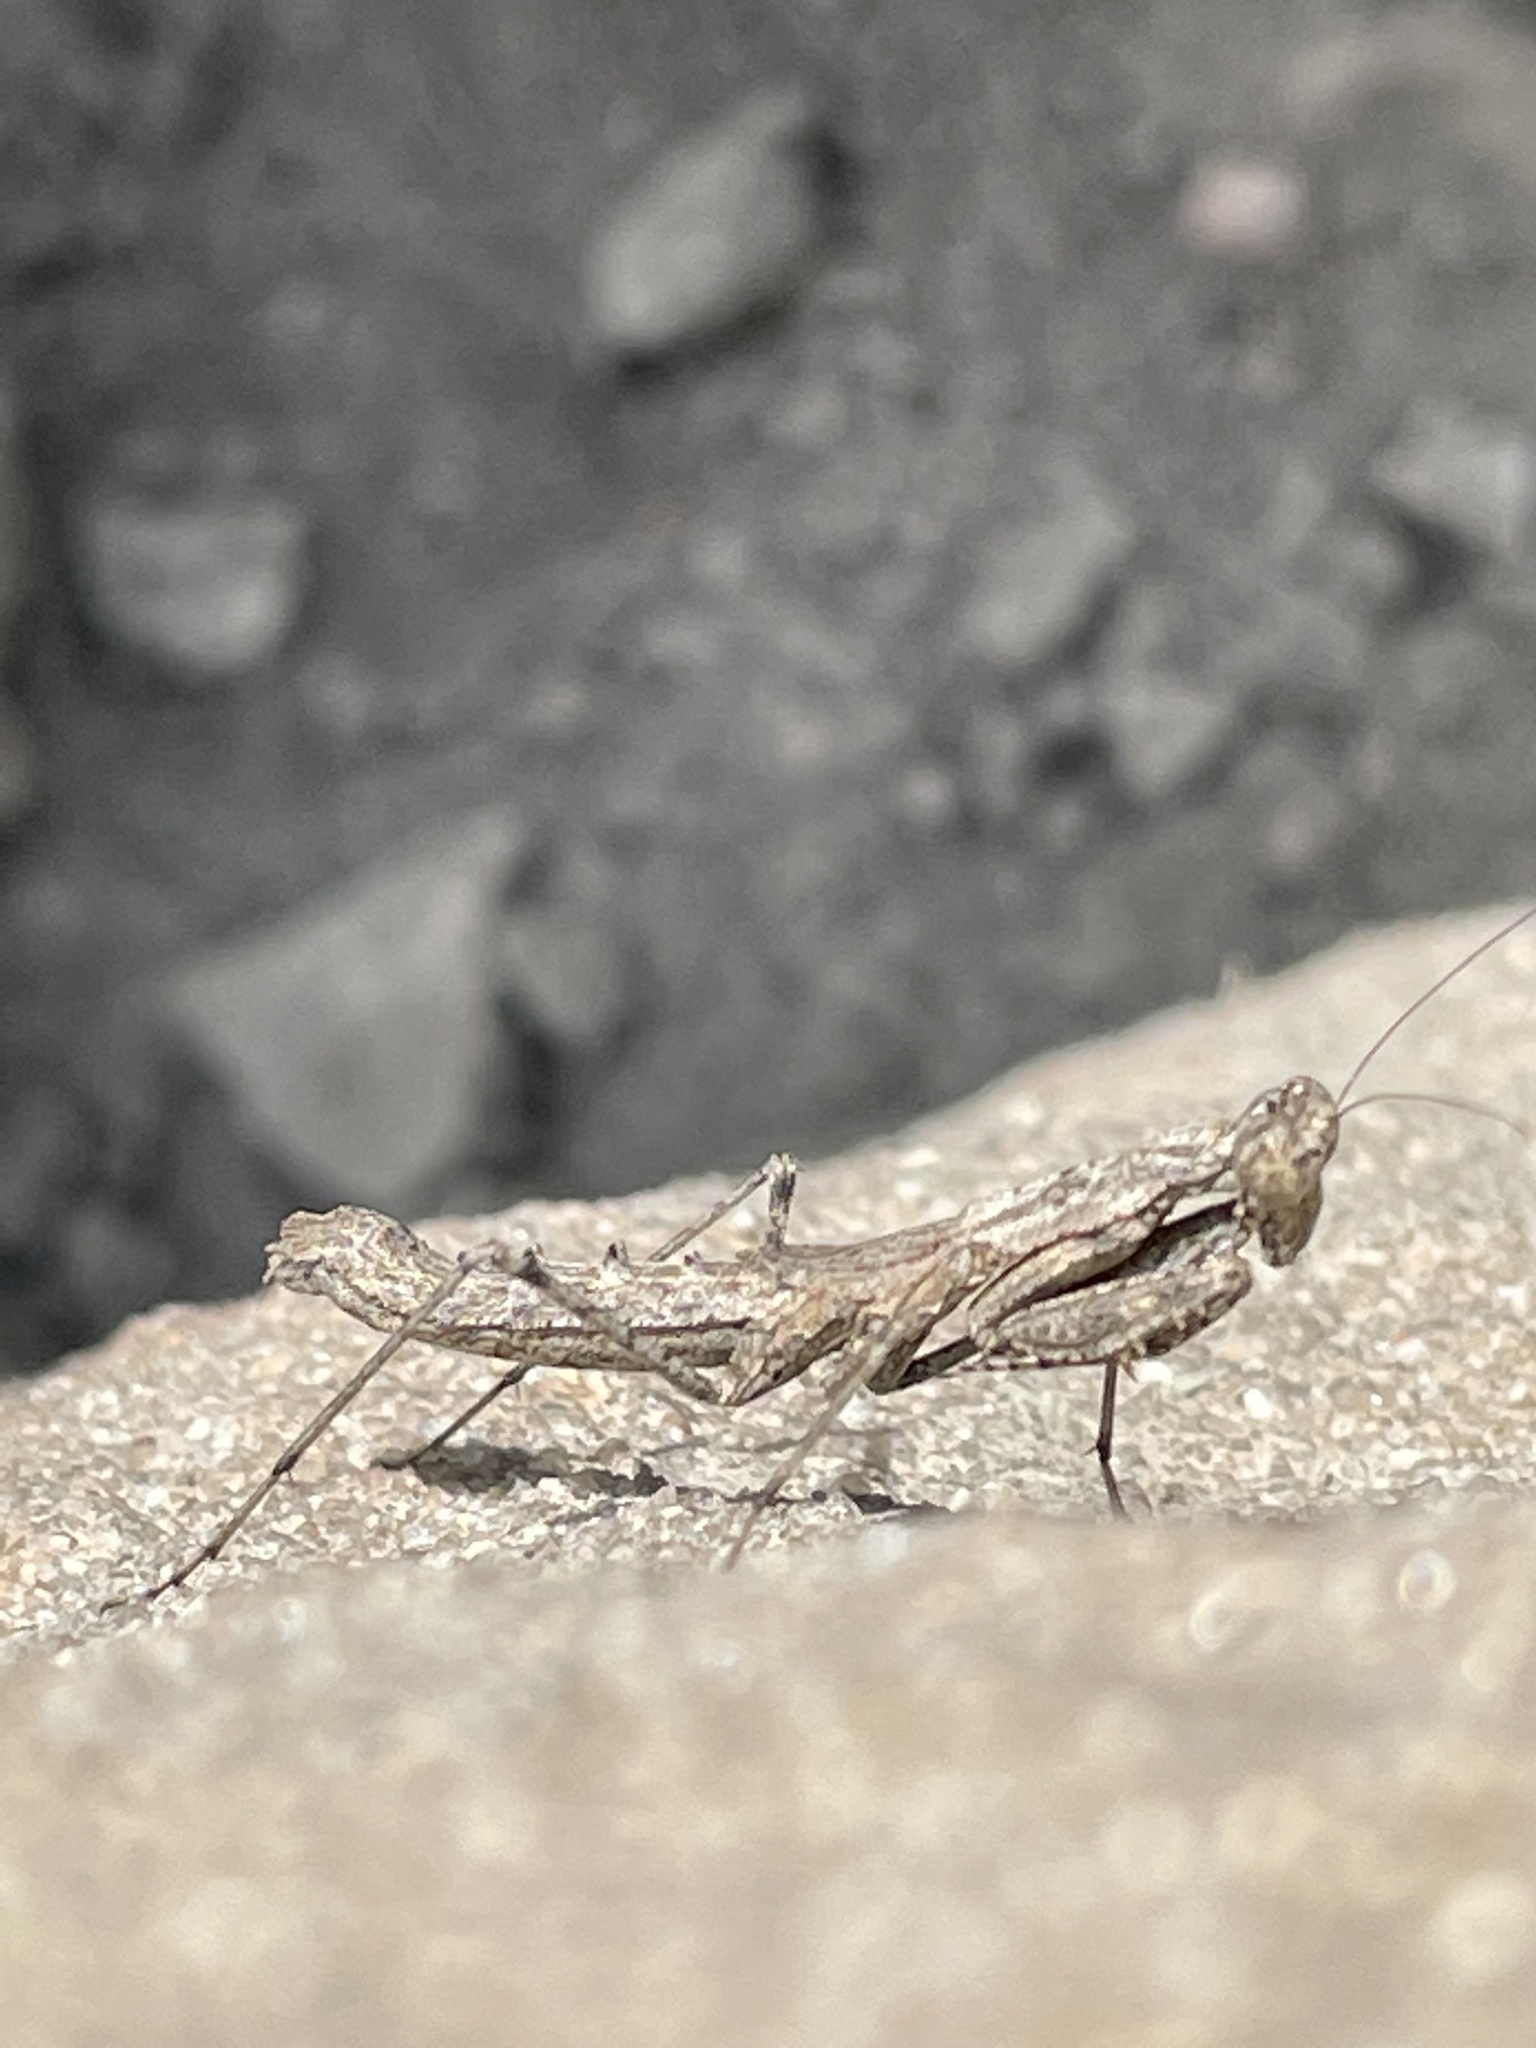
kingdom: Animalia
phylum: Arthropoda
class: Insecta
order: Mantodea
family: Amelidae
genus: Litaneutria
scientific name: Litaneutria elongata
